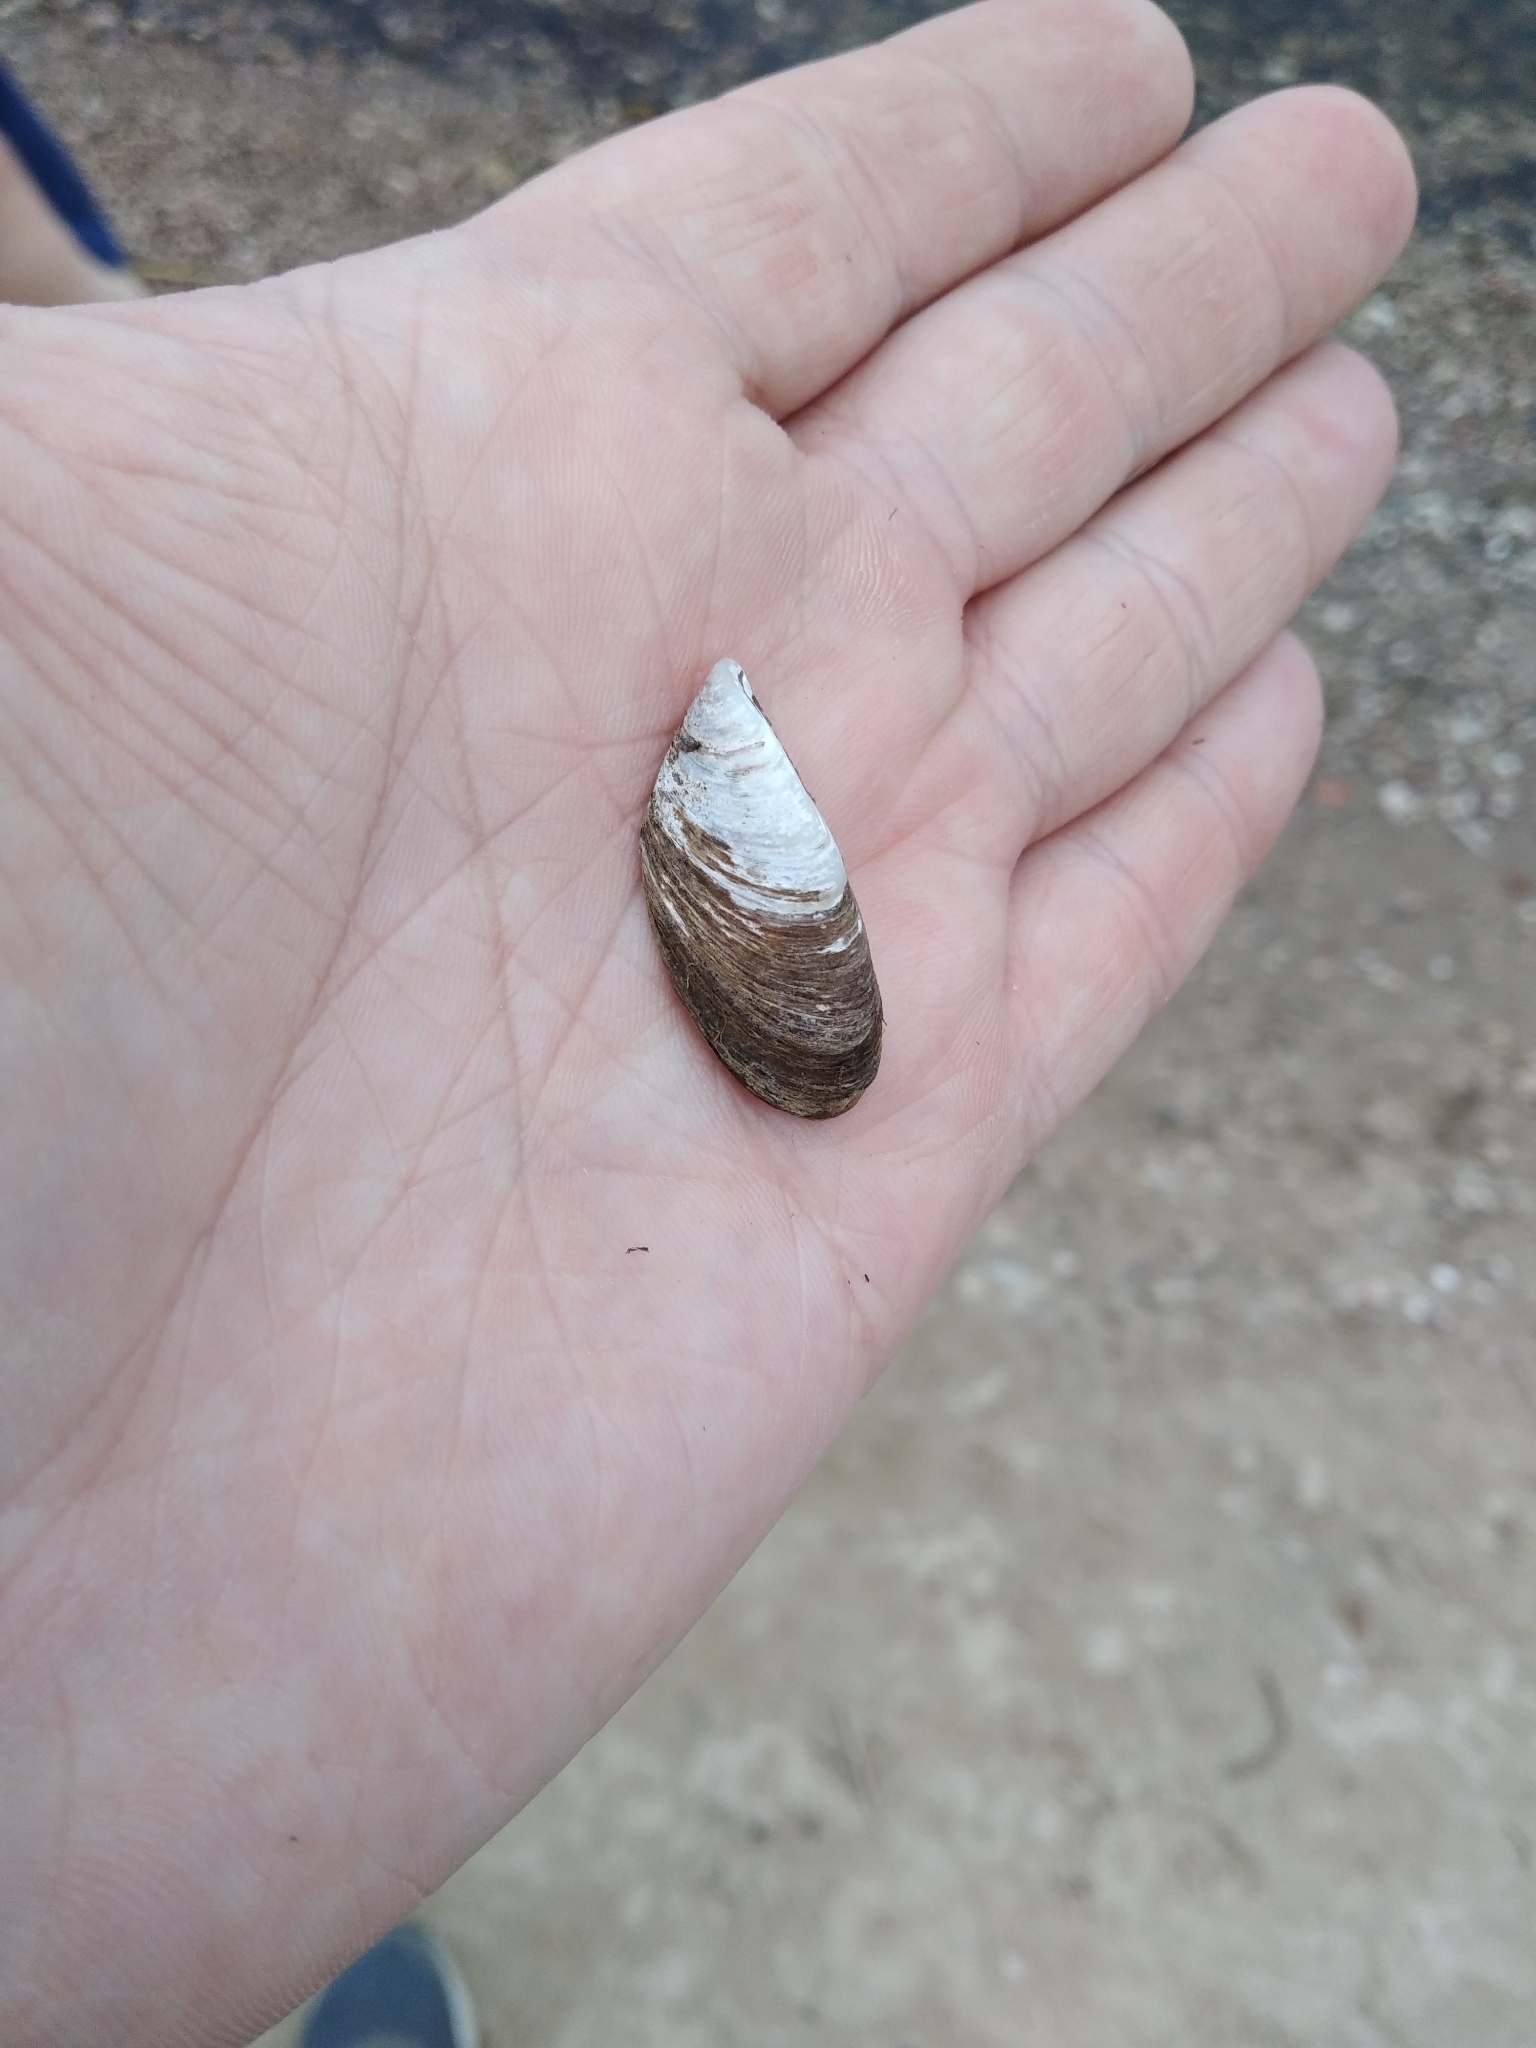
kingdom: Animalia
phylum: Mollusca
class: Bivalvia
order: Myida
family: Dreissenidae
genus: Dreissena
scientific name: Dreissena polymorpha
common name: Zebra mussel
